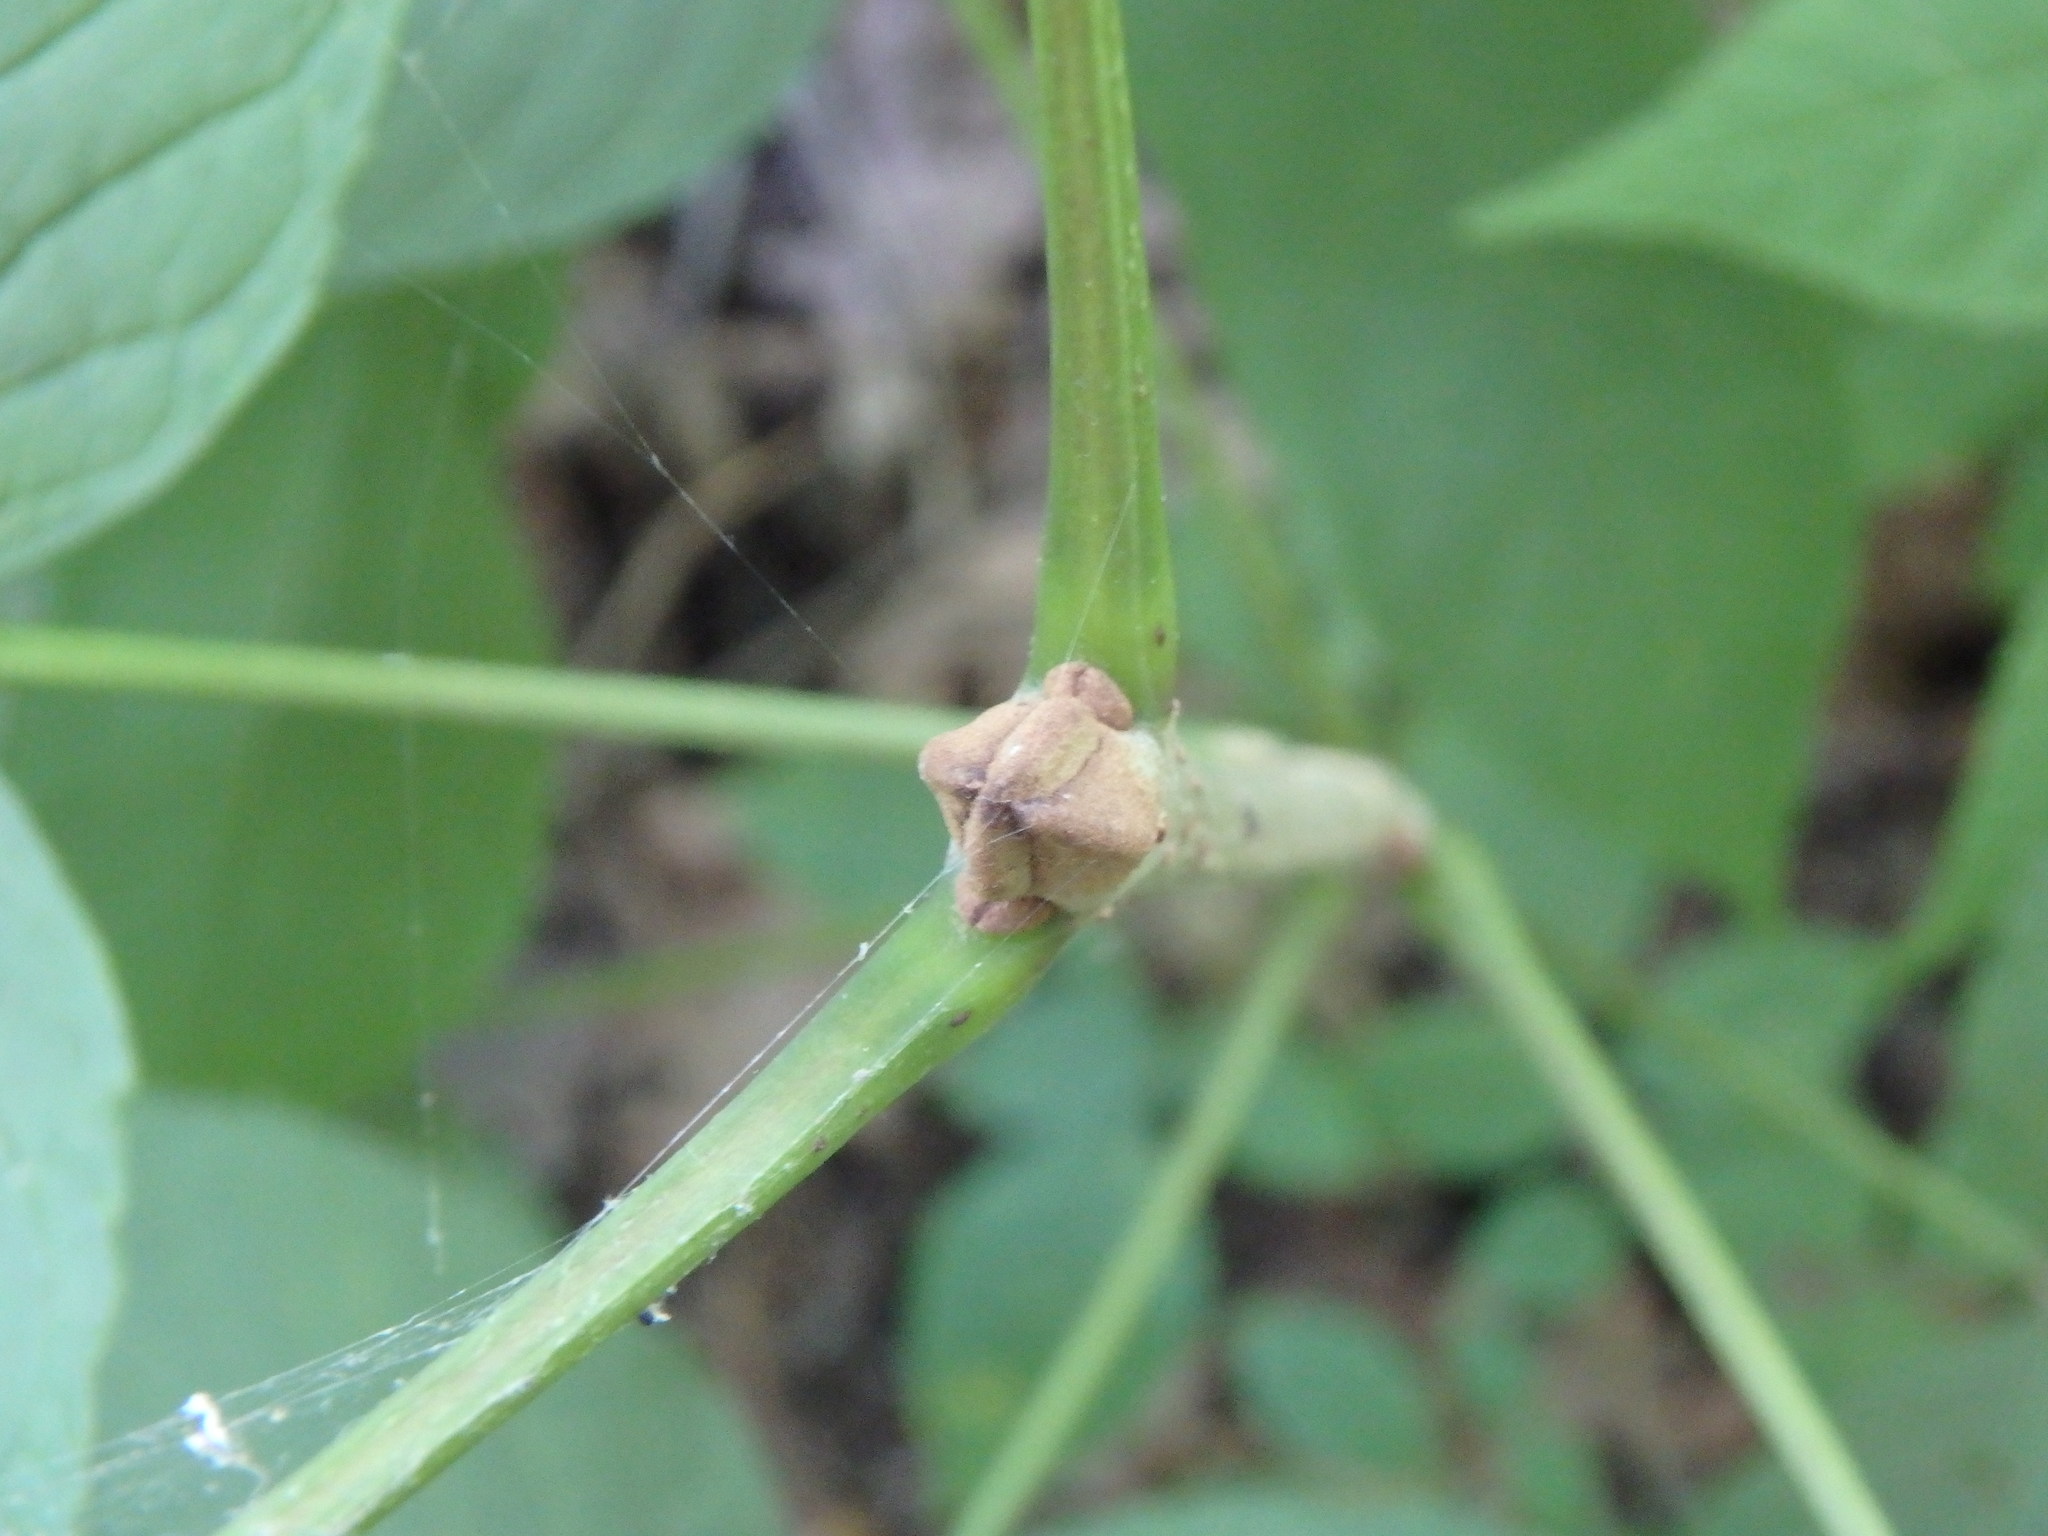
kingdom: Plantae
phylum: Tracheophyta
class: Magnoliopsida
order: Lamiales
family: Oleaceae
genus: Fraxinus
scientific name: Fraxinus nigra
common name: Black ash
